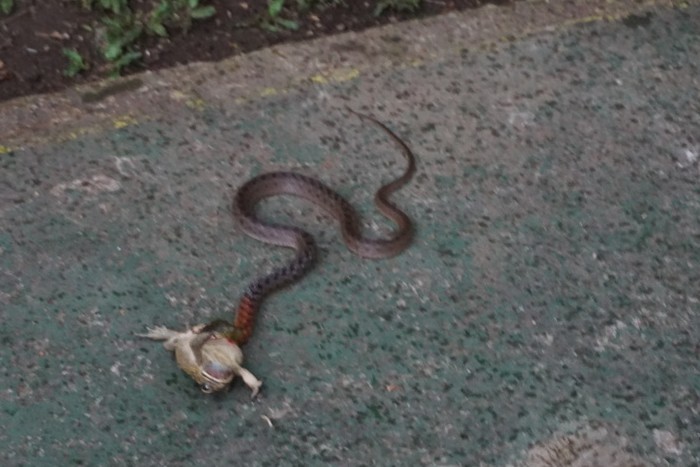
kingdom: Animalia
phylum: Chordata
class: Squamata
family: Colubridae
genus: Rhabdophis
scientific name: Rhabdophis subminiatus
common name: Red-necked keelback
